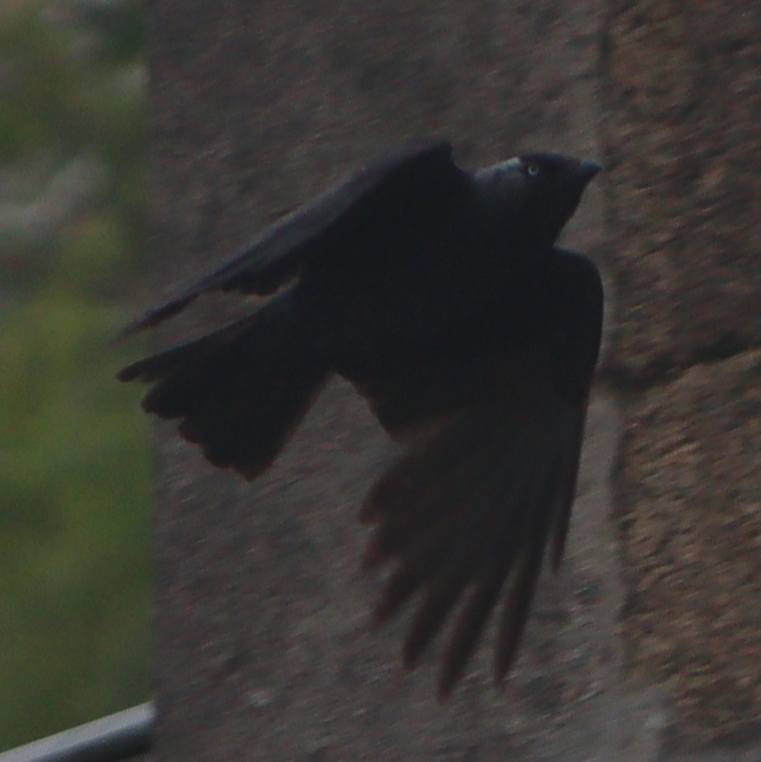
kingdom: Animalia
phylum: Chordata
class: Aves
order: Passeriformes
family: Corvidae
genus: Coloeus
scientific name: Coloeus monedula
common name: Western jackdaw
